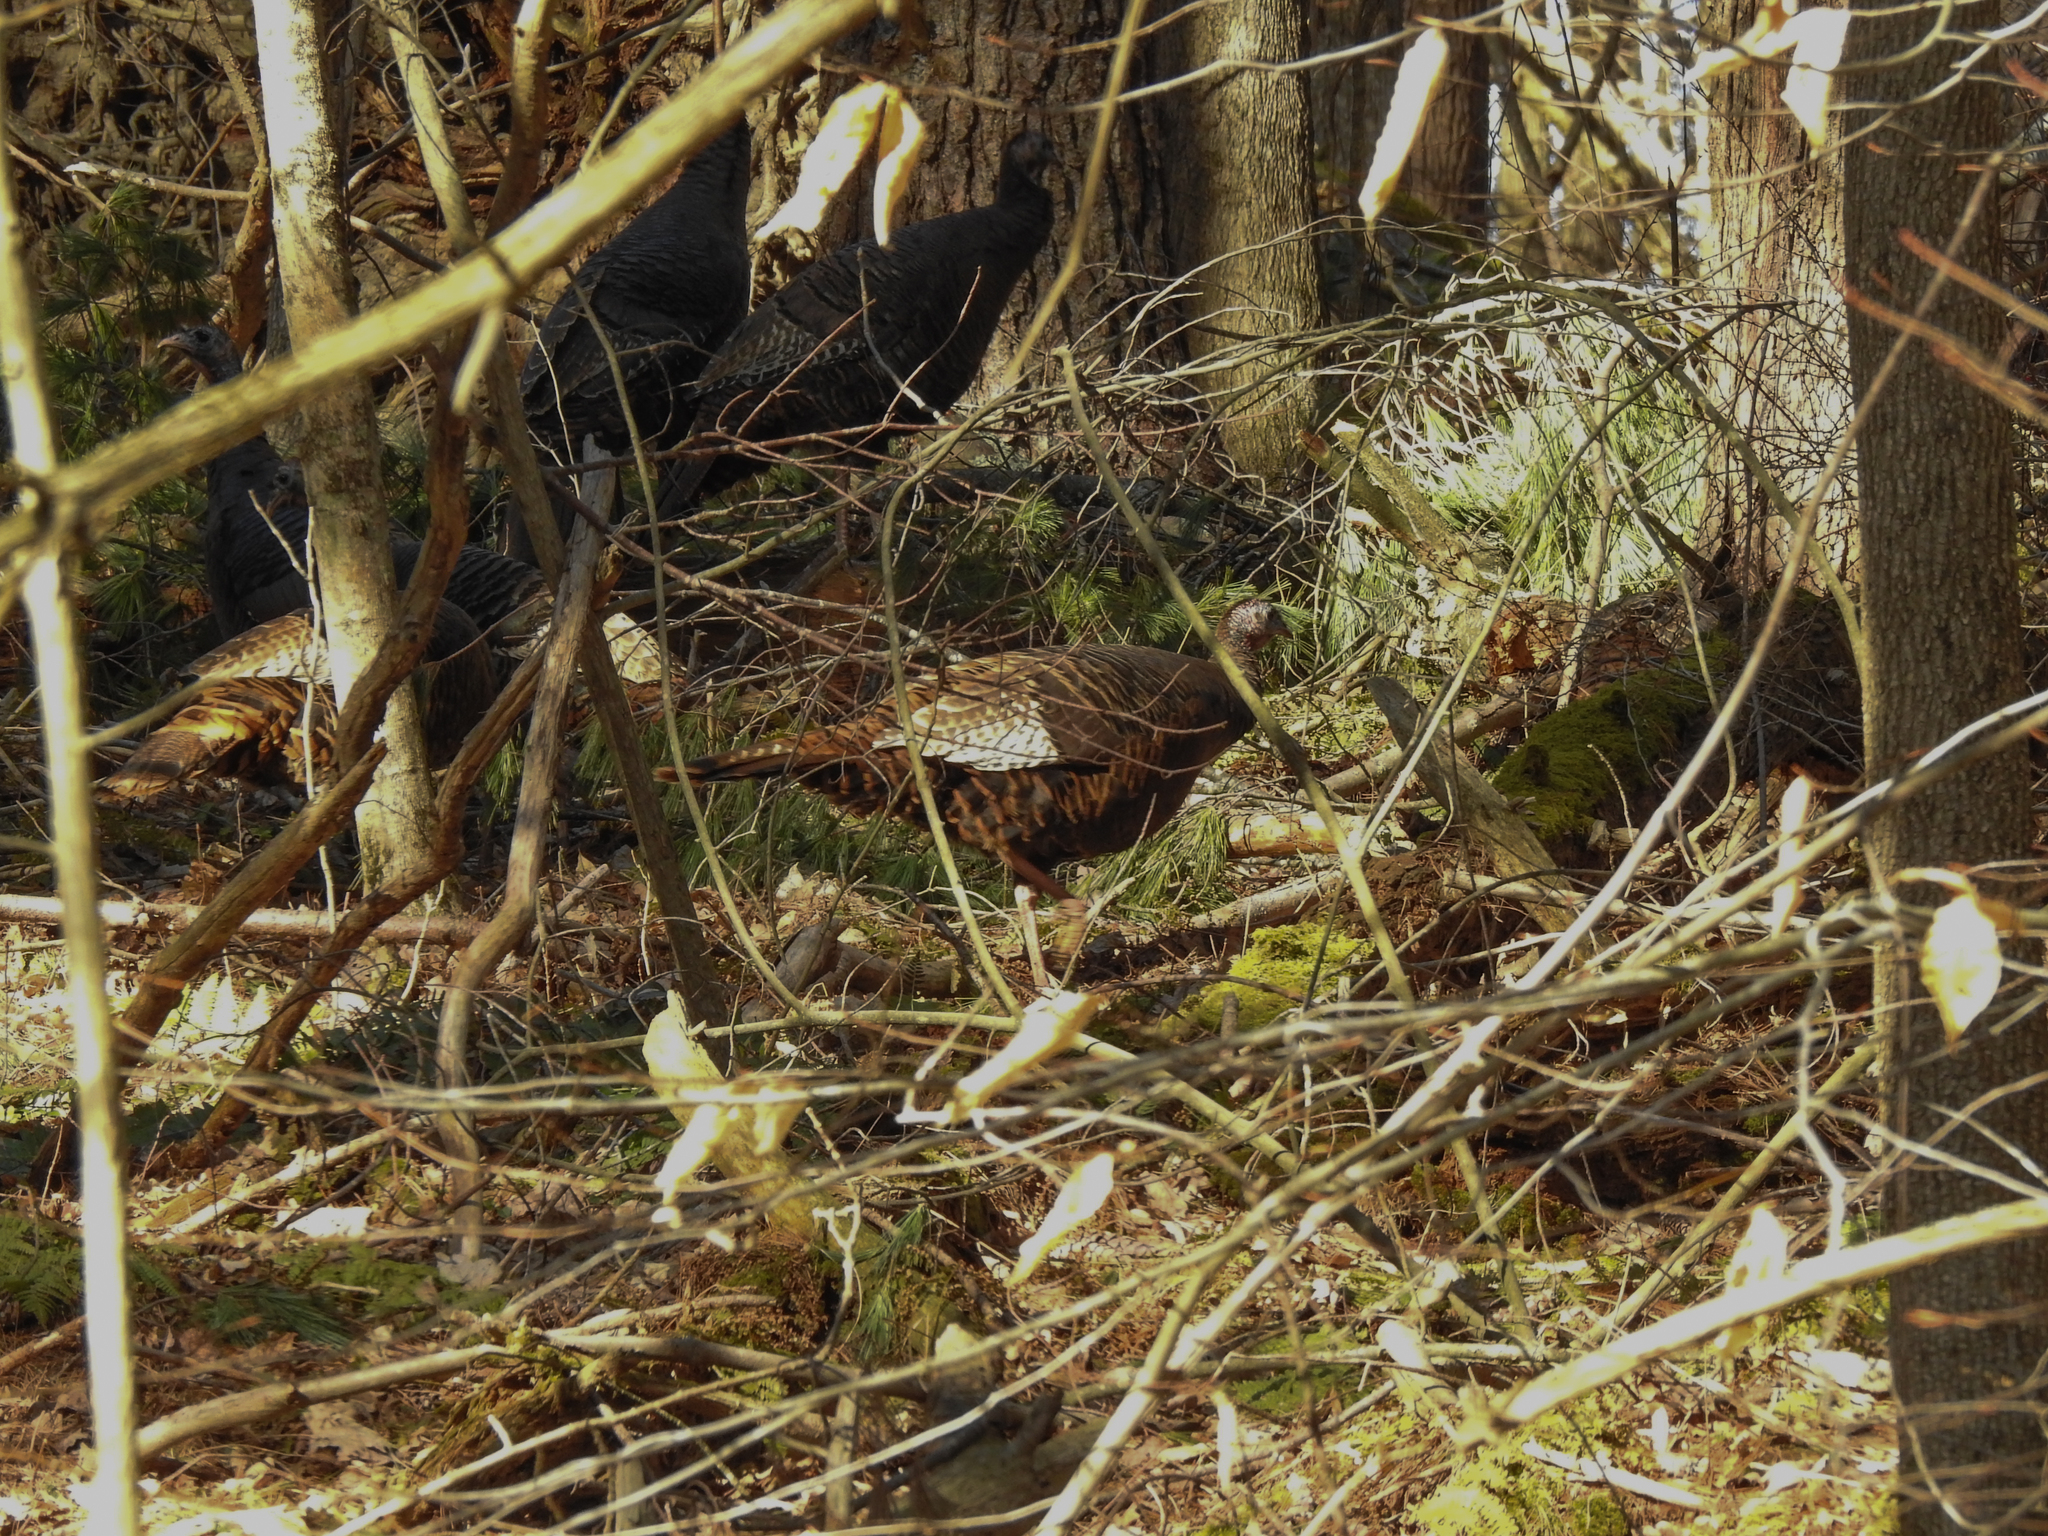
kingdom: Animalia
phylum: Chordata
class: Aves
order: Galliformes
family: Phasianidae
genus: Meleagris
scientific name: Meleagris gallopavo
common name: Wild turkey
